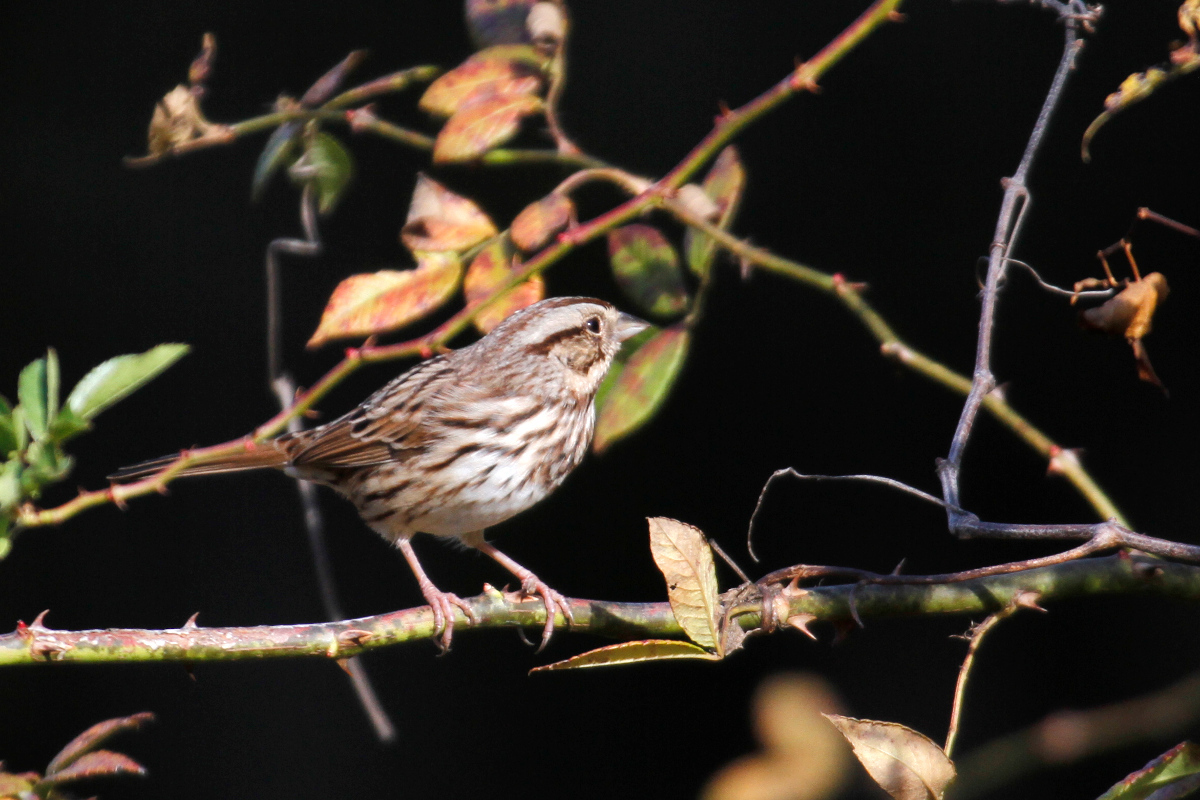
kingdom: Animalia
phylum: Chordata
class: Aves
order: Passeriformes
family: Passerellidae
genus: Melospiza
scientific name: Melospiza melodia
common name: Song sparrow
